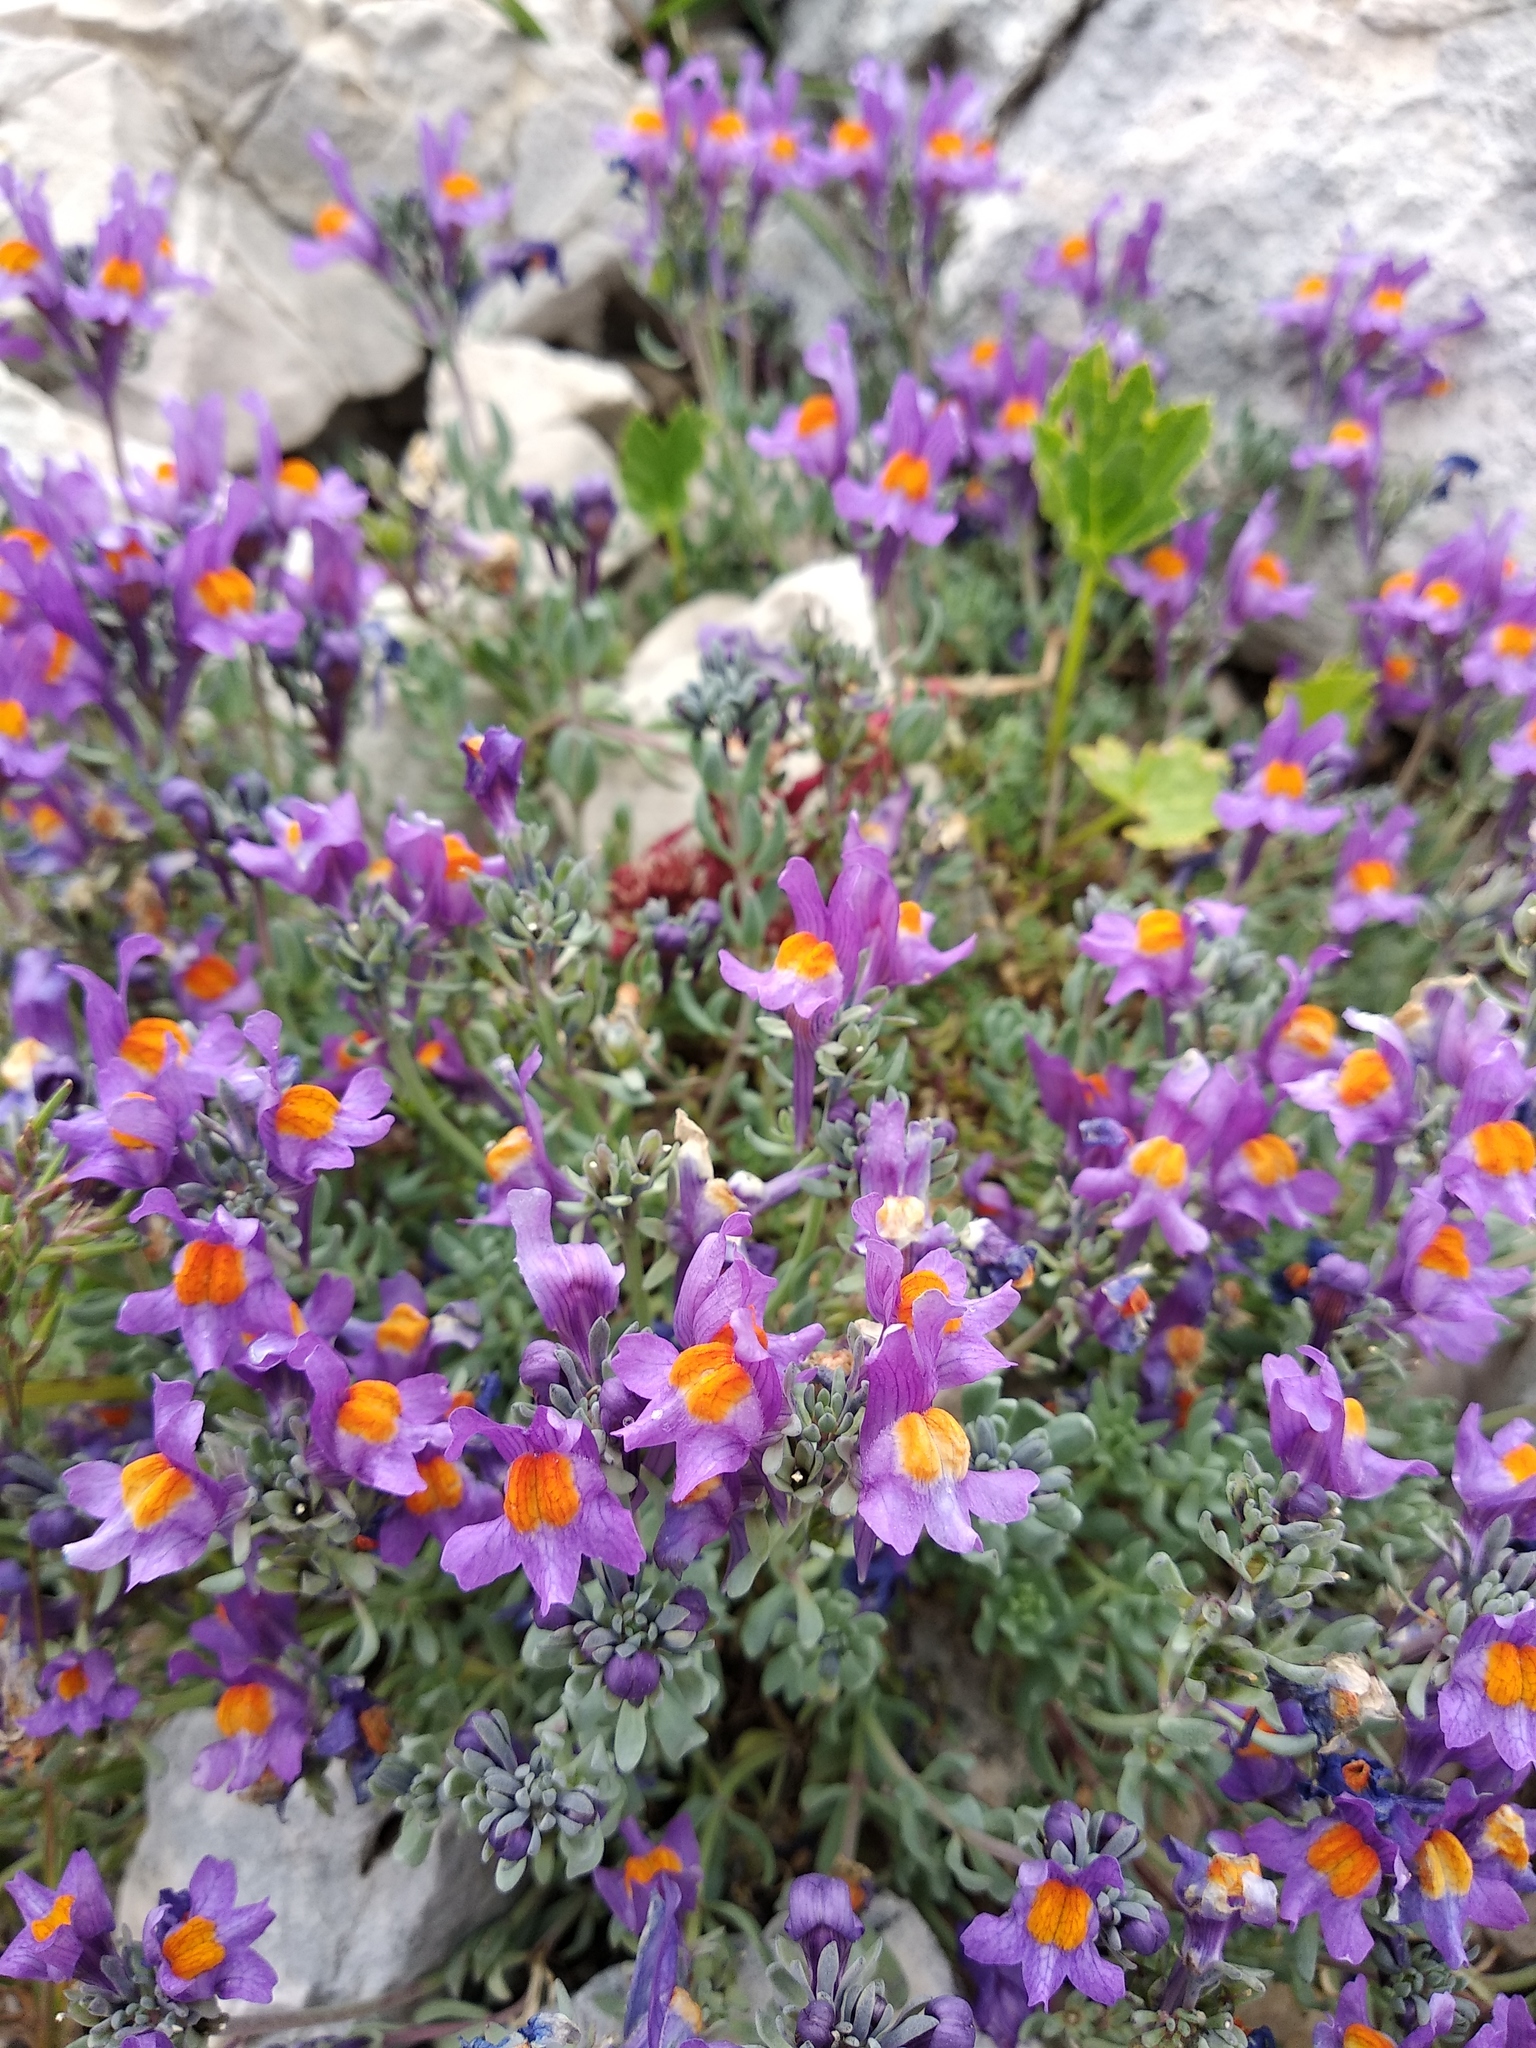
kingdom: Plantae
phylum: Tracheophyta
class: Magnoliopsida
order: Lamiales
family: Plantaginaceae
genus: Linaria
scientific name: Linaria alpina
